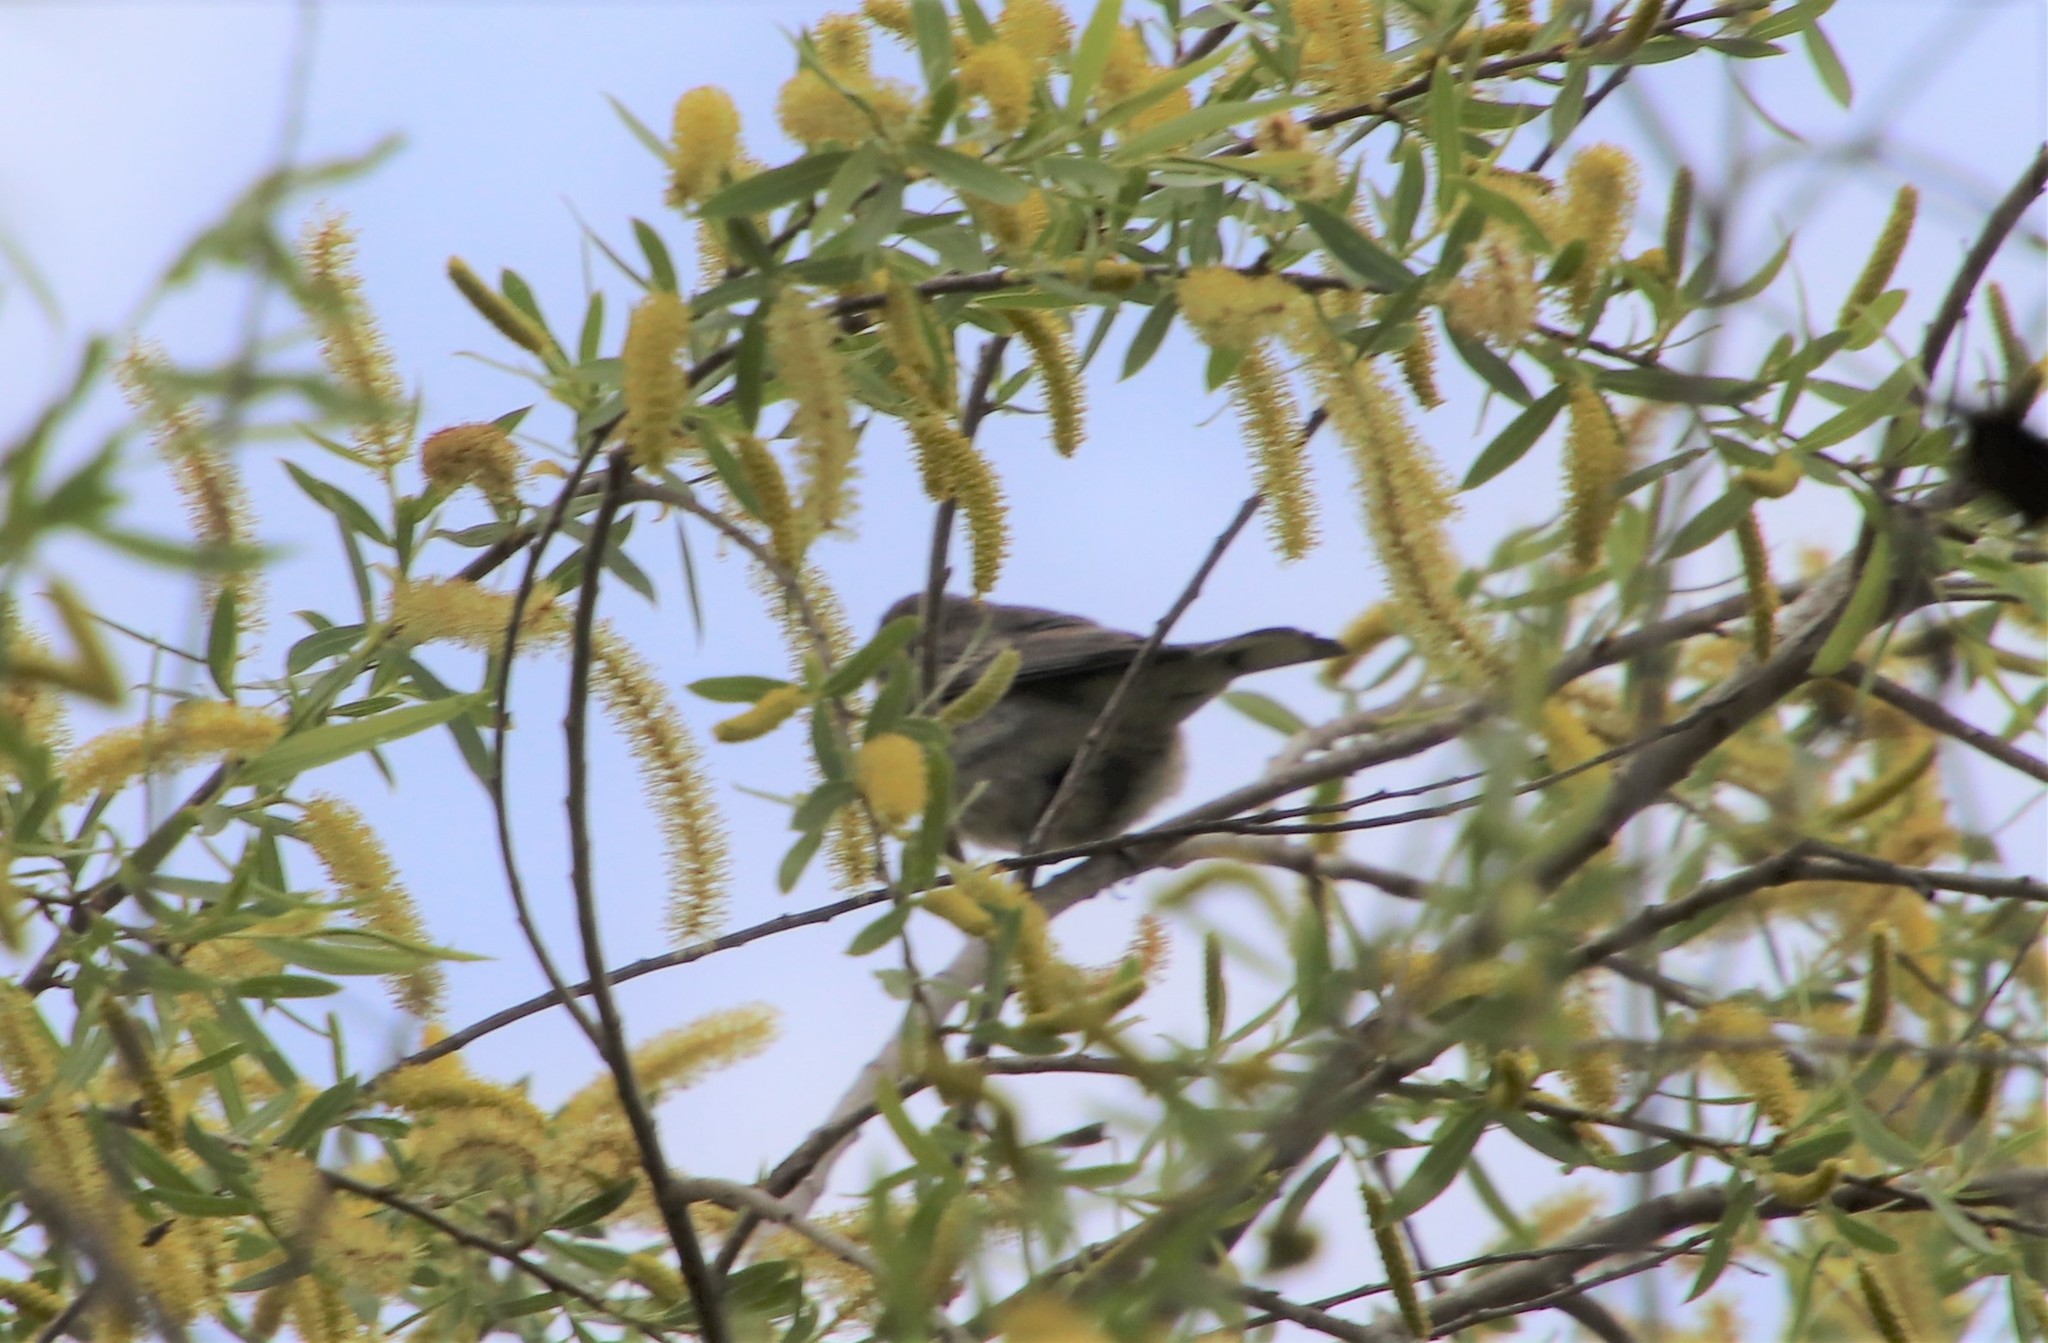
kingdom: Animalia
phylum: Chordata
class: Aves
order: Passeriformes
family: Parulidae
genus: Setophaga
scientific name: Setophaga coronata
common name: Myrtle warbler
